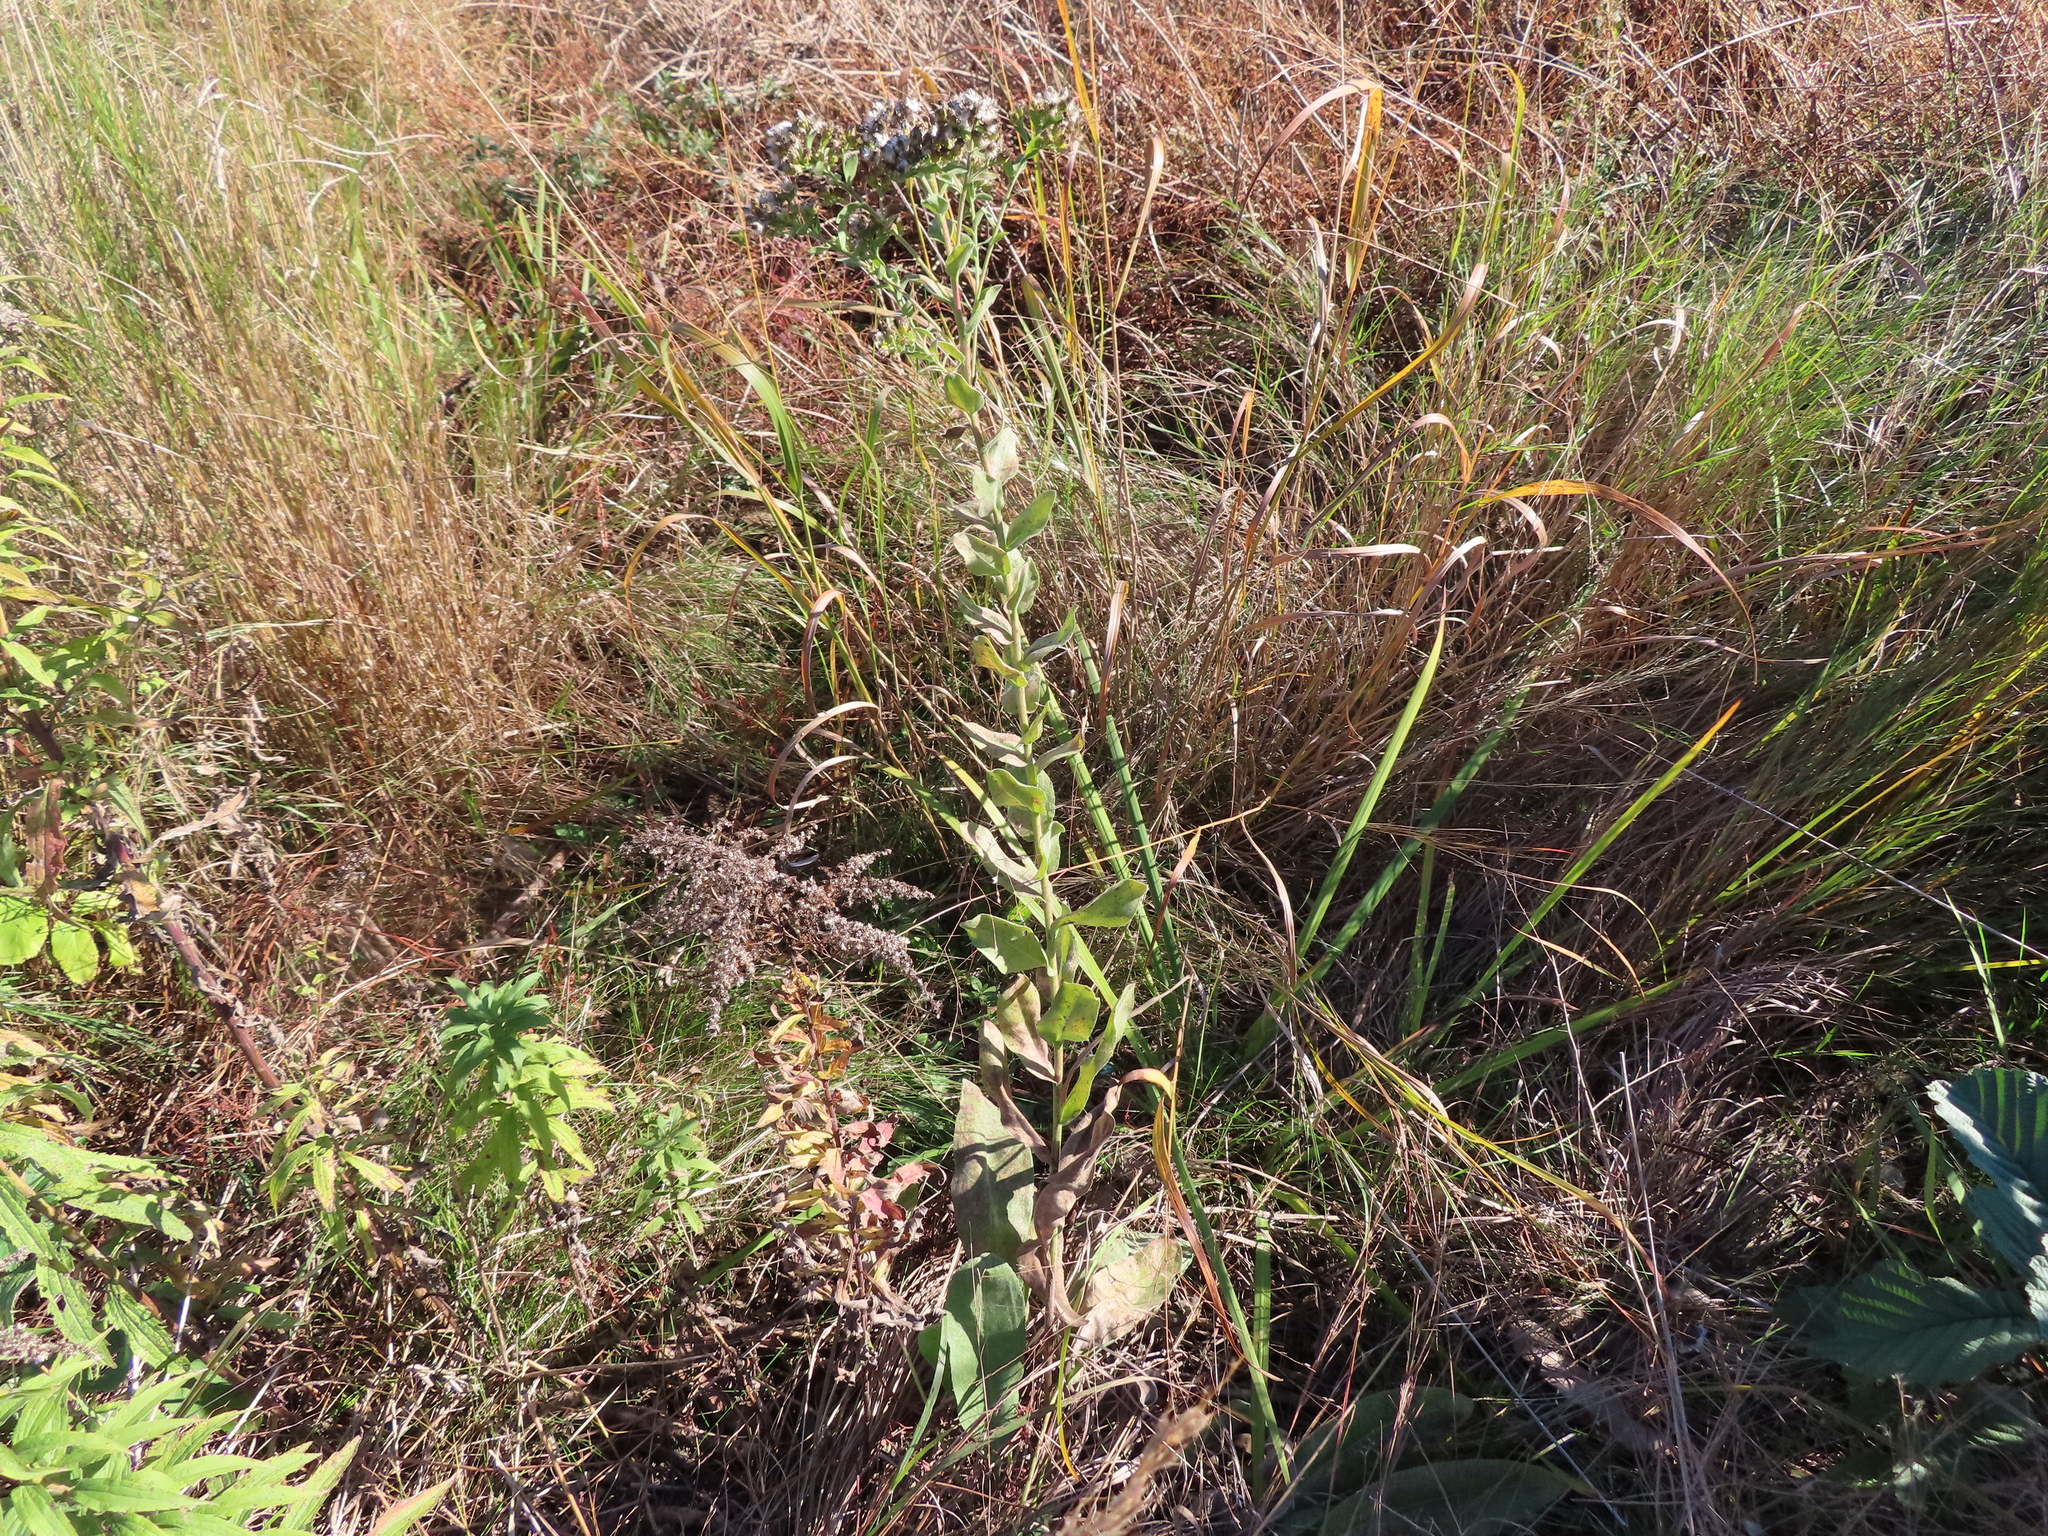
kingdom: Plantae
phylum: Tracheophyta
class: Magnoliopsida
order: Asterales
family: Asteraceae
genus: Solidago
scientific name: Solidago rigida
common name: Rigid goldenrod
